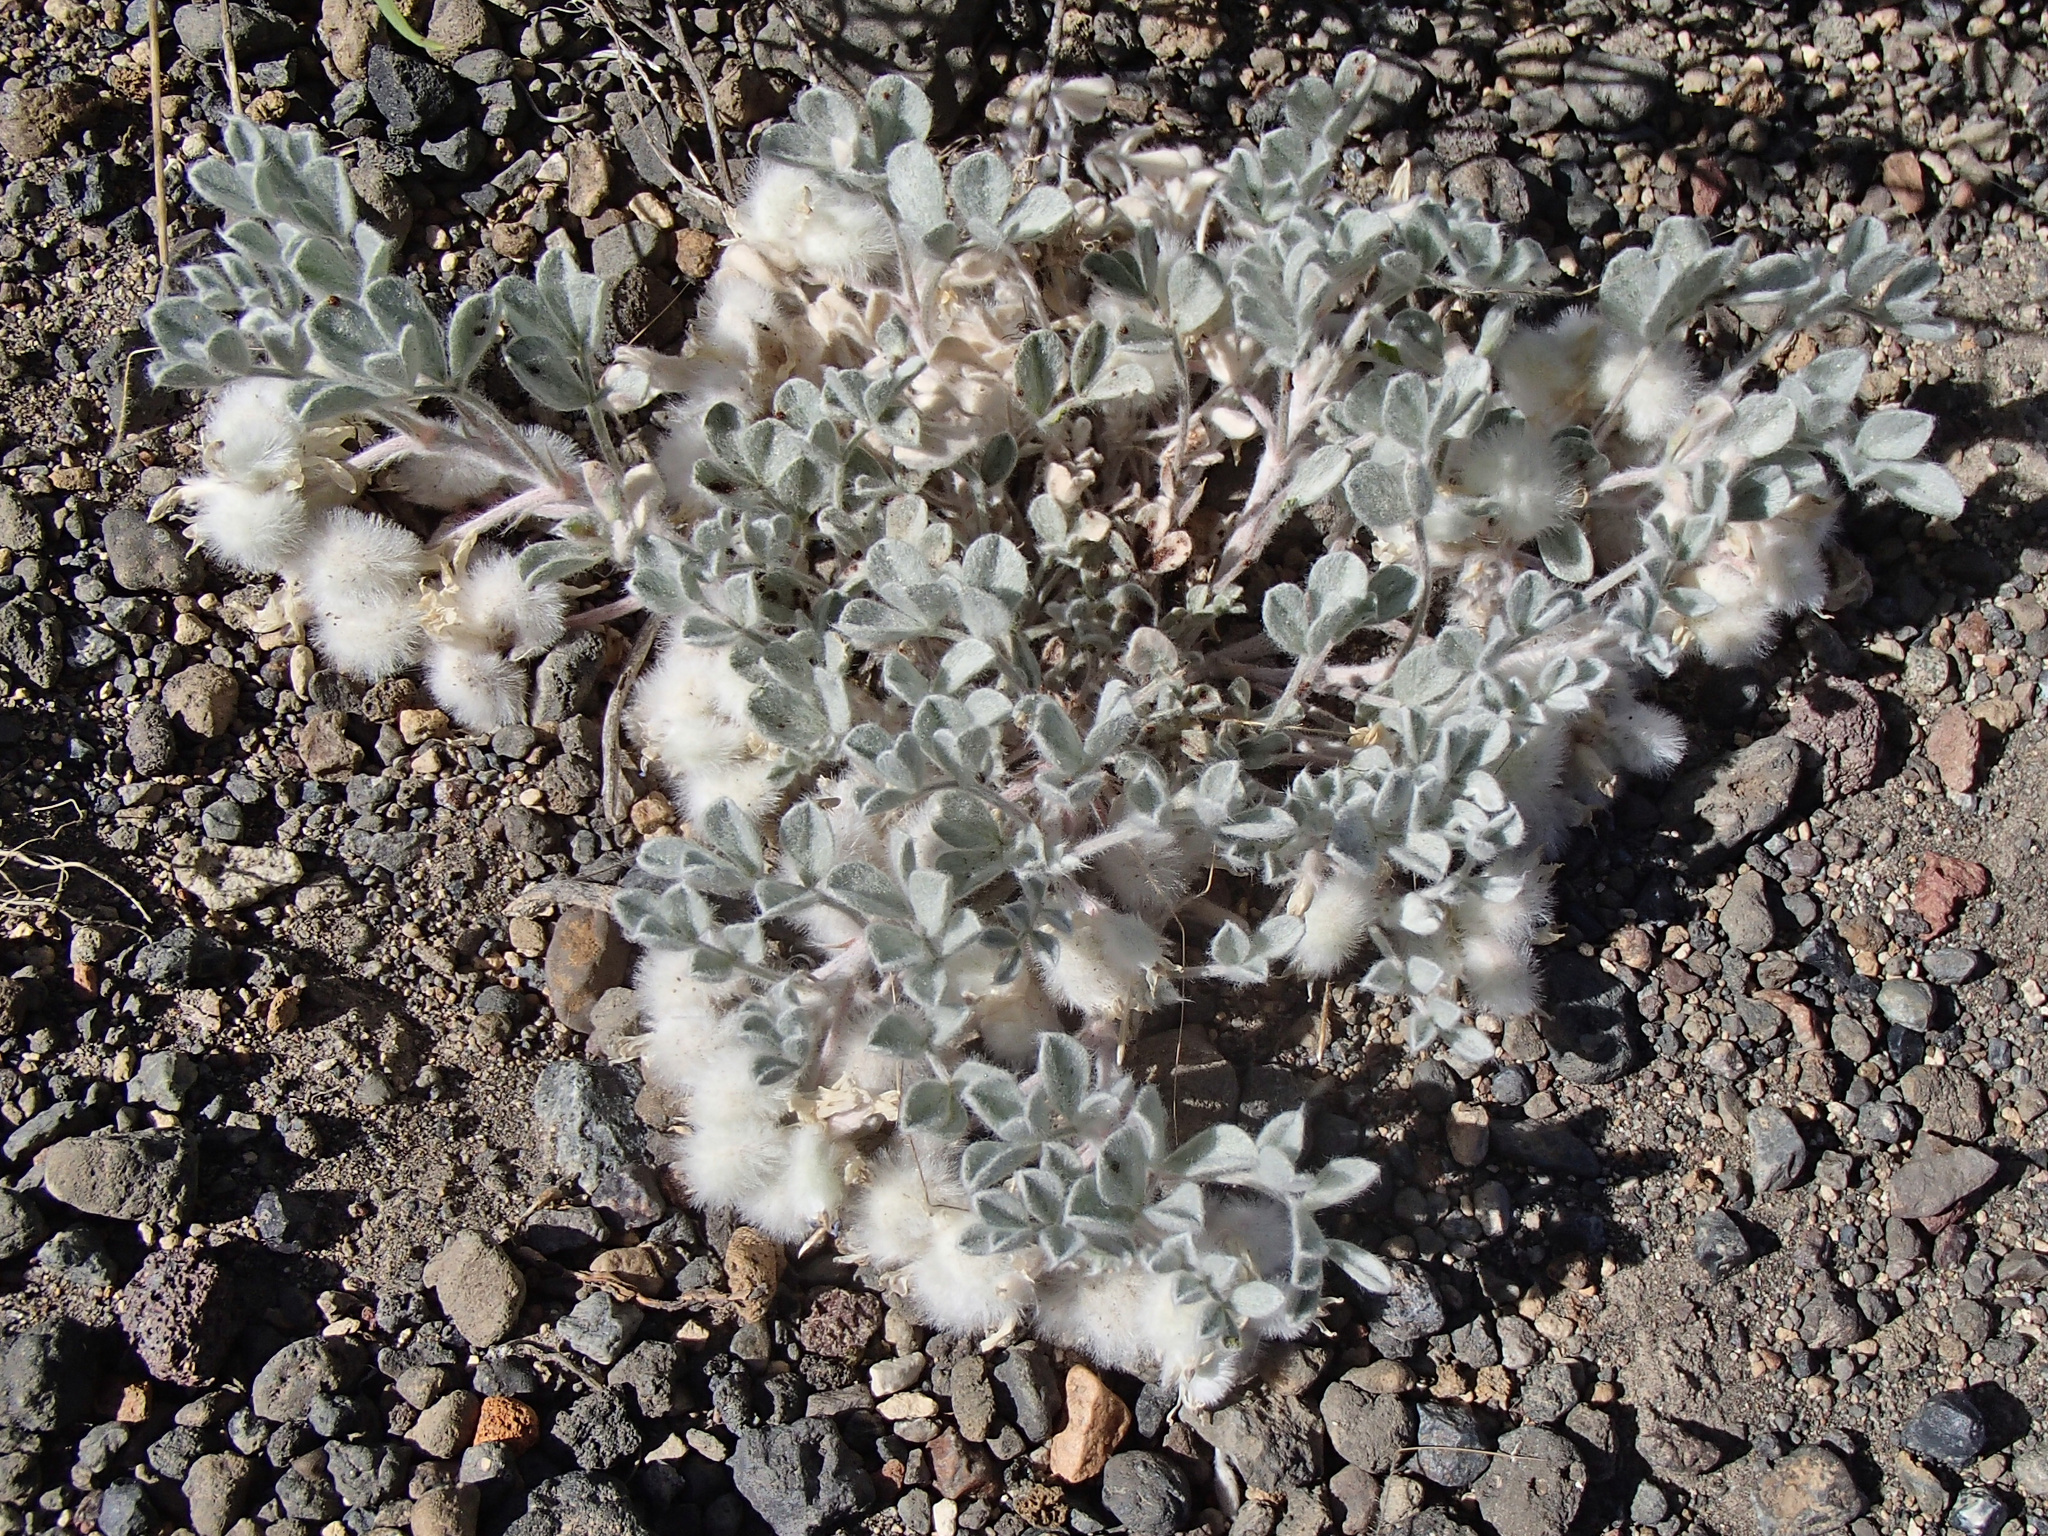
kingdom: Plantae
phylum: Tracheophyta
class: Magnoliopsida
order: Fabales
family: Fabaceae
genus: Astragalus
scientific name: Astragalus purshii
